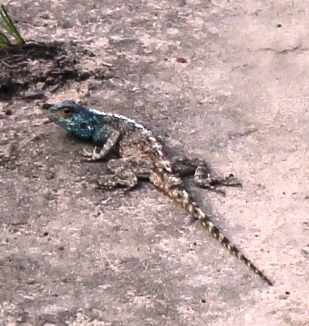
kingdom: Animalia
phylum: Chordata
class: Squamata
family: Agamidae
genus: Agama
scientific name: Agama atra
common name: Southern african rock agama
